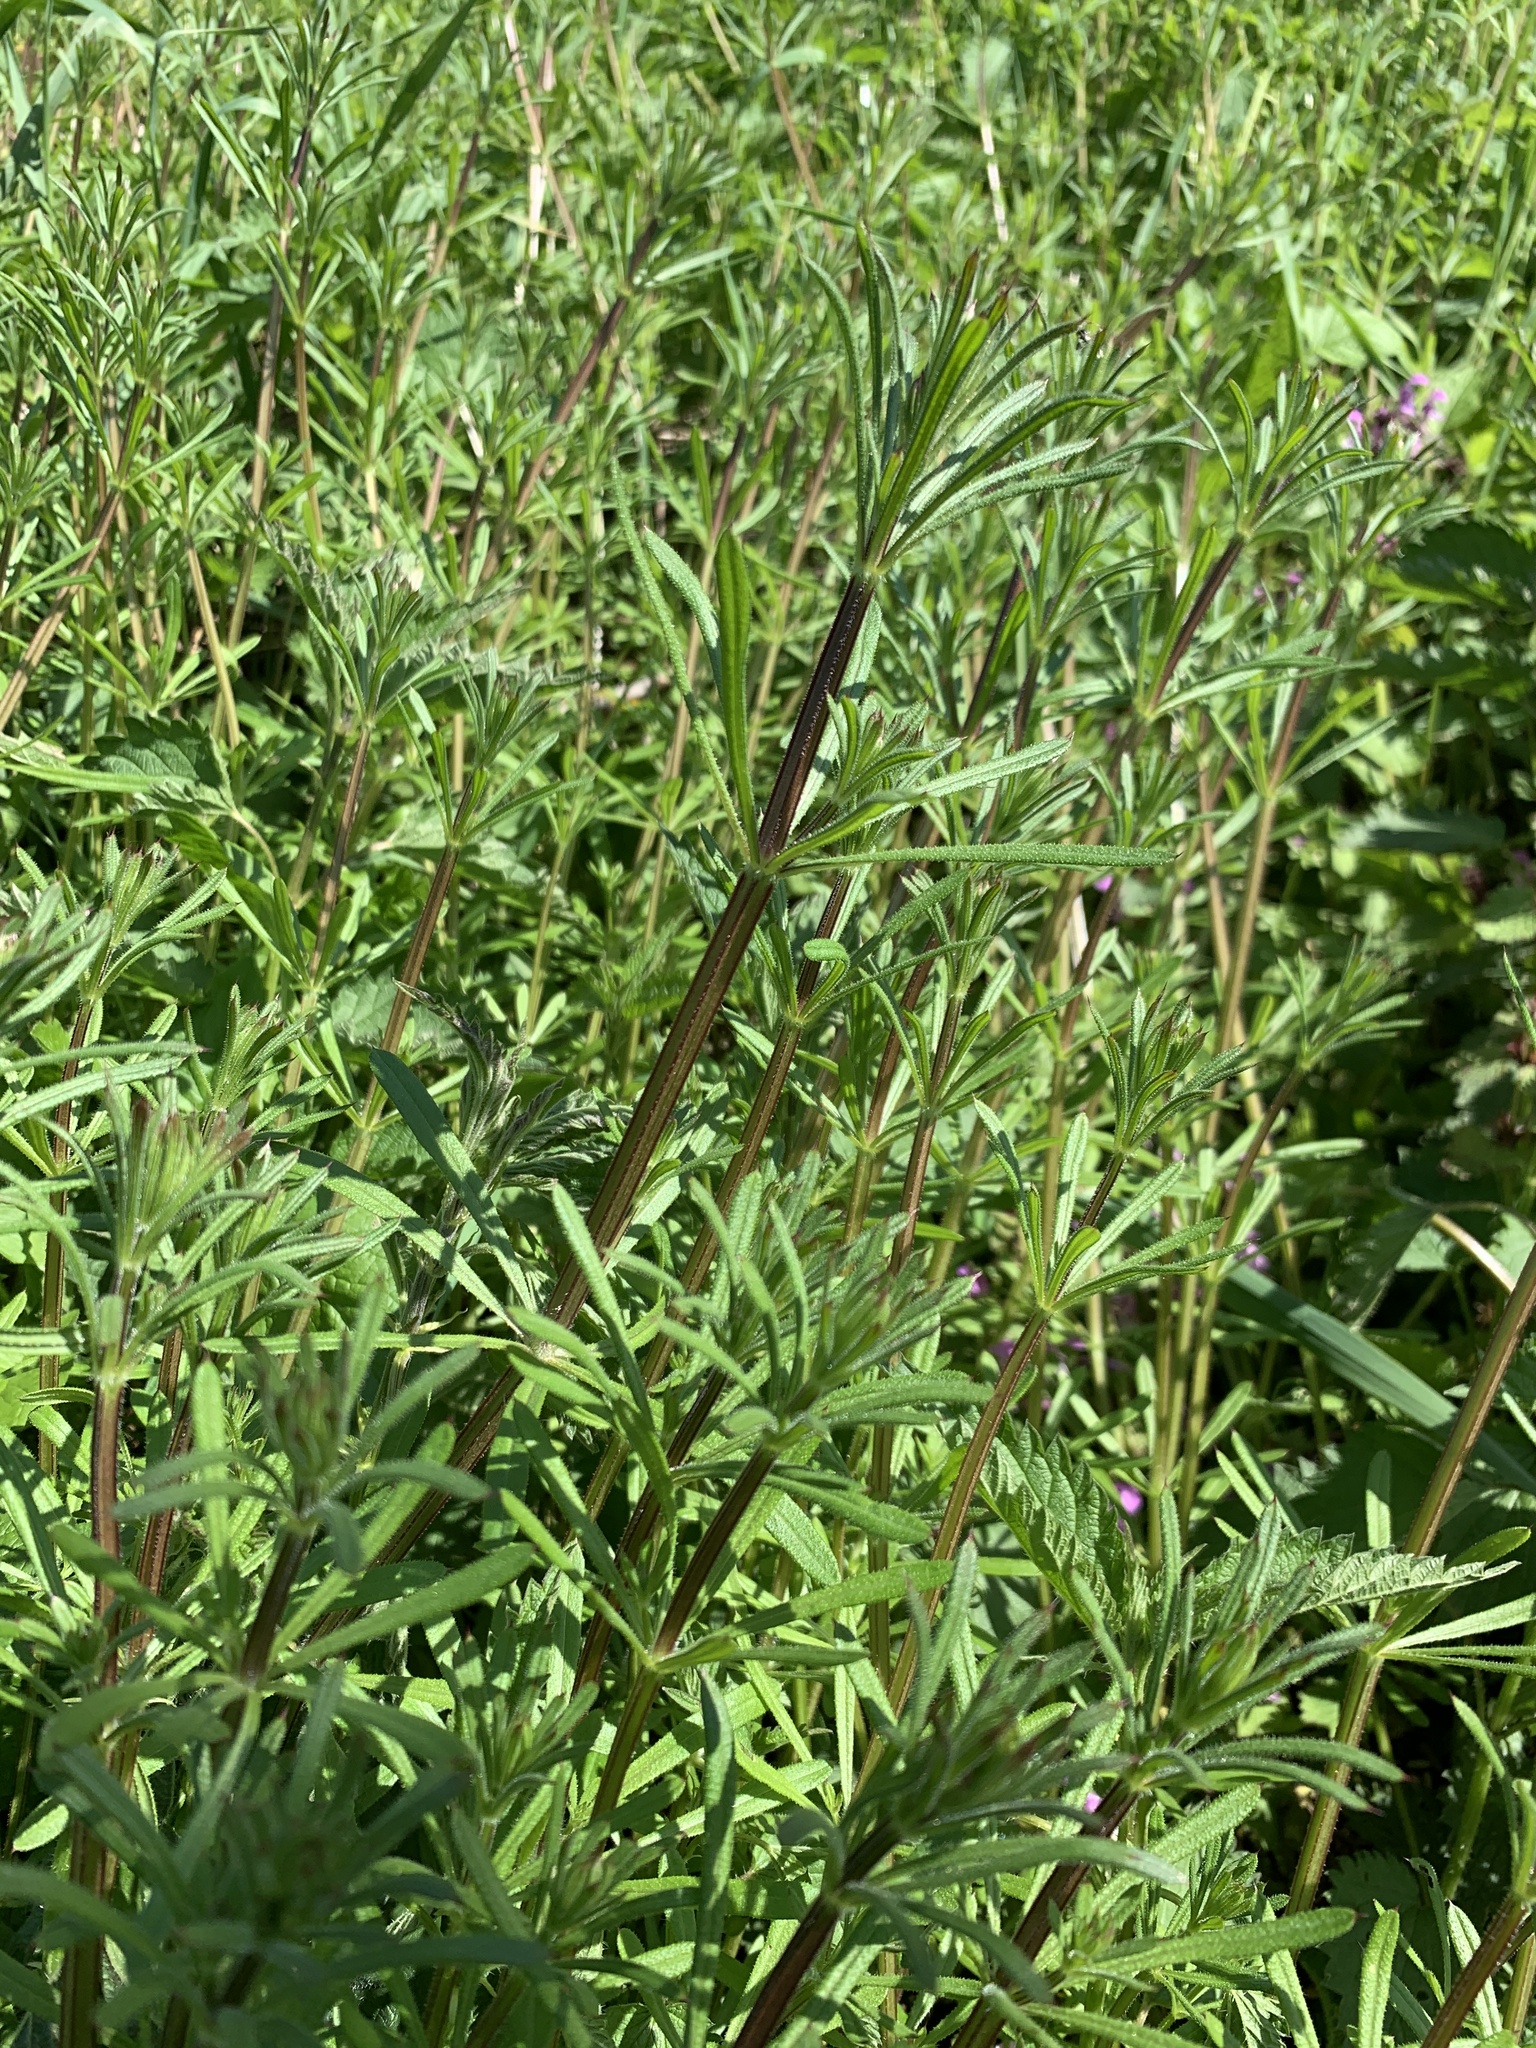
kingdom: Plantae
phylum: Tracheophyta
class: Magnoliopsida
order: Gentianales
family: Rubiaceae
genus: Galium
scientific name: Galium aparine
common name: Cleavers
